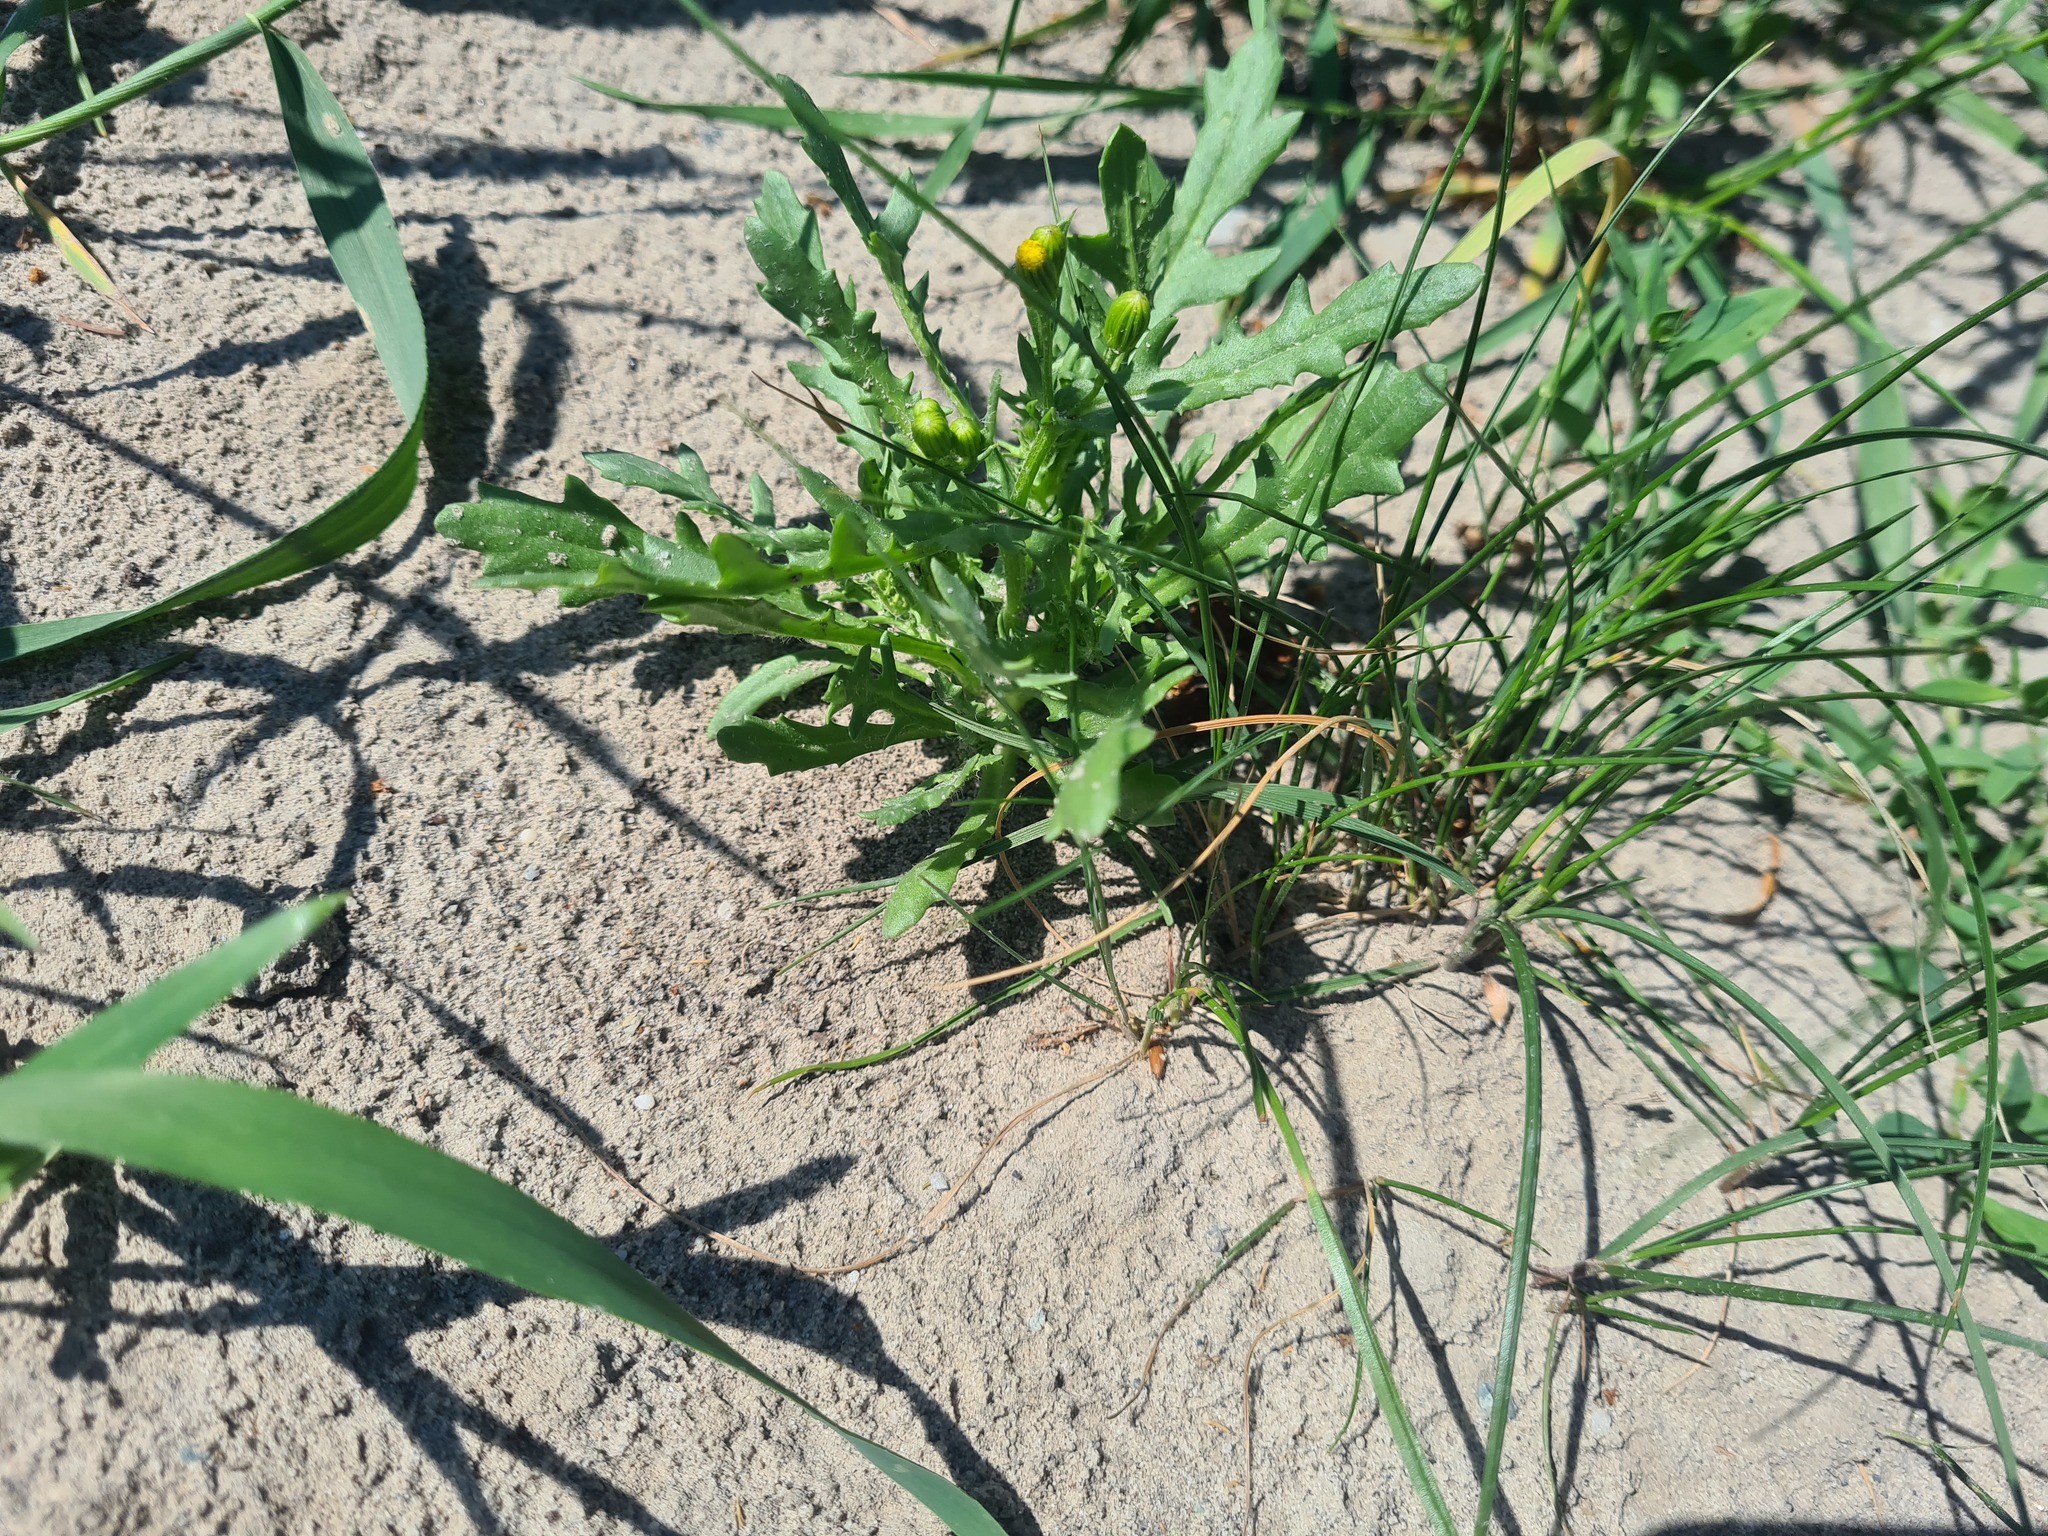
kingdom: Plantae
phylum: Tracheophyta
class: Magnoliopsida
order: Asterales
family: Asteraceae
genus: Senecio
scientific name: Senecio dubitabilis
